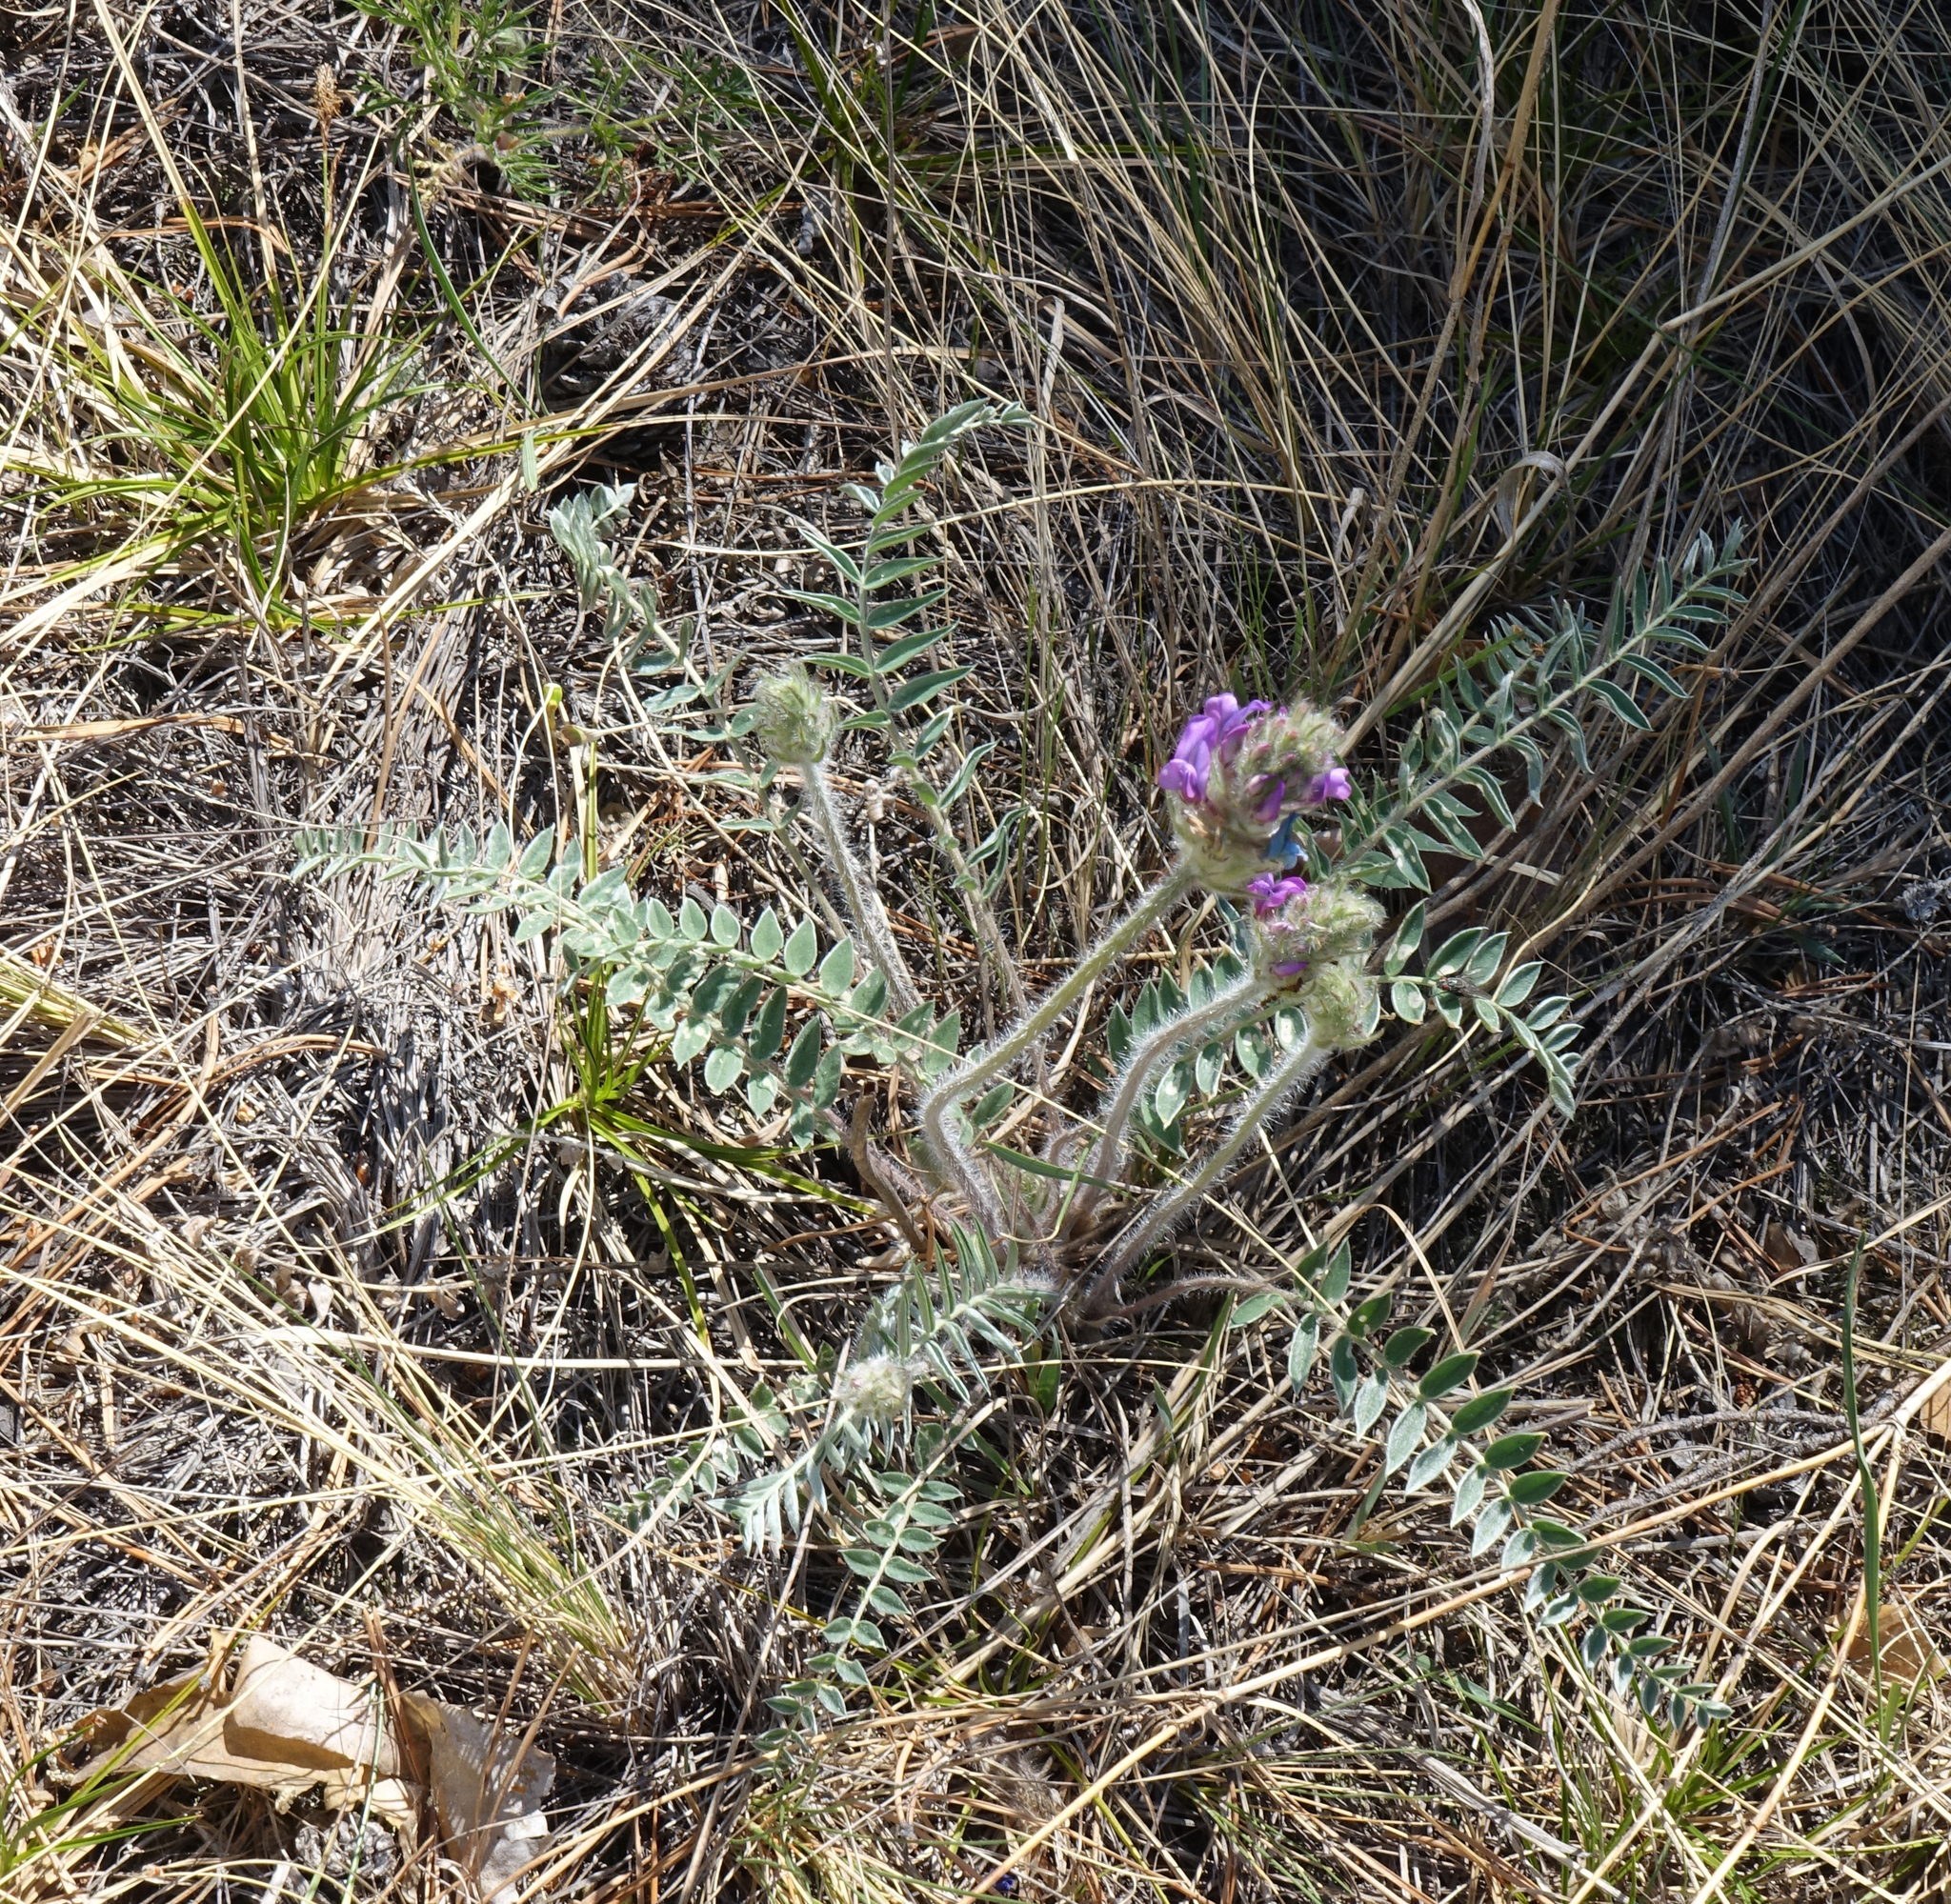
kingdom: Plantae
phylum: Tracheophyta
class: Magnoliopsida
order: Fabales
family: Fabaceae
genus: Oxytropis
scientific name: Oxytropis strobilacea
